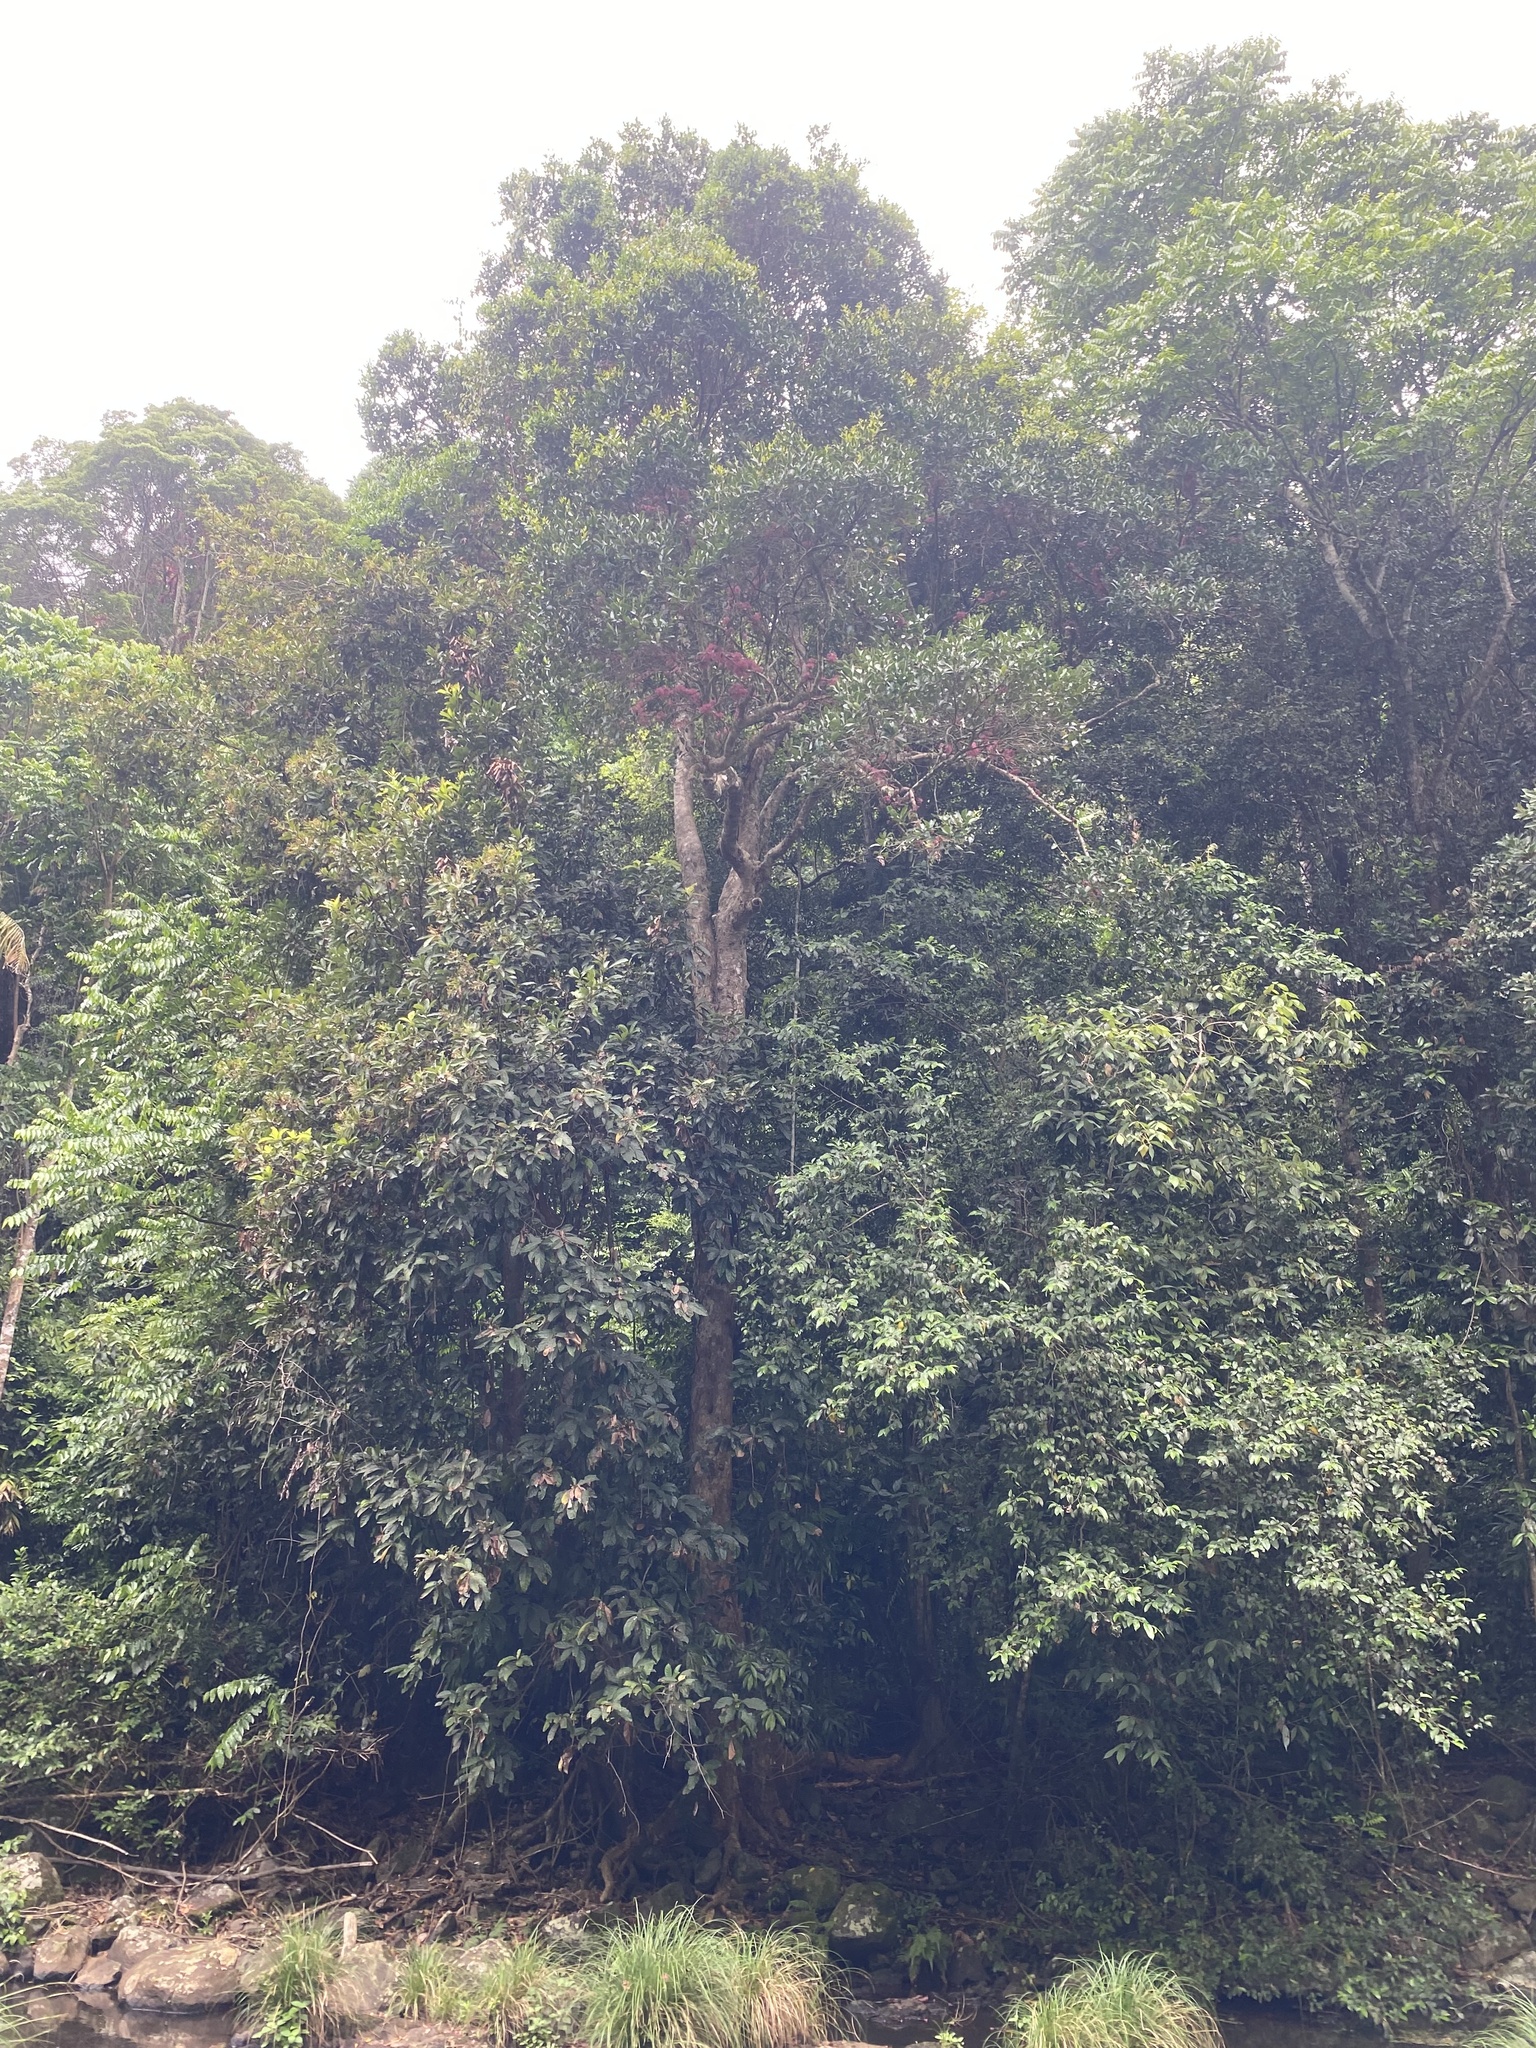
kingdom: Plantae
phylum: Tracheophyta
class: Magnoliopsida
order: Myrtales
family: Myrtaceae
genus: Syzygium
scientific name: Syzygium moorei
